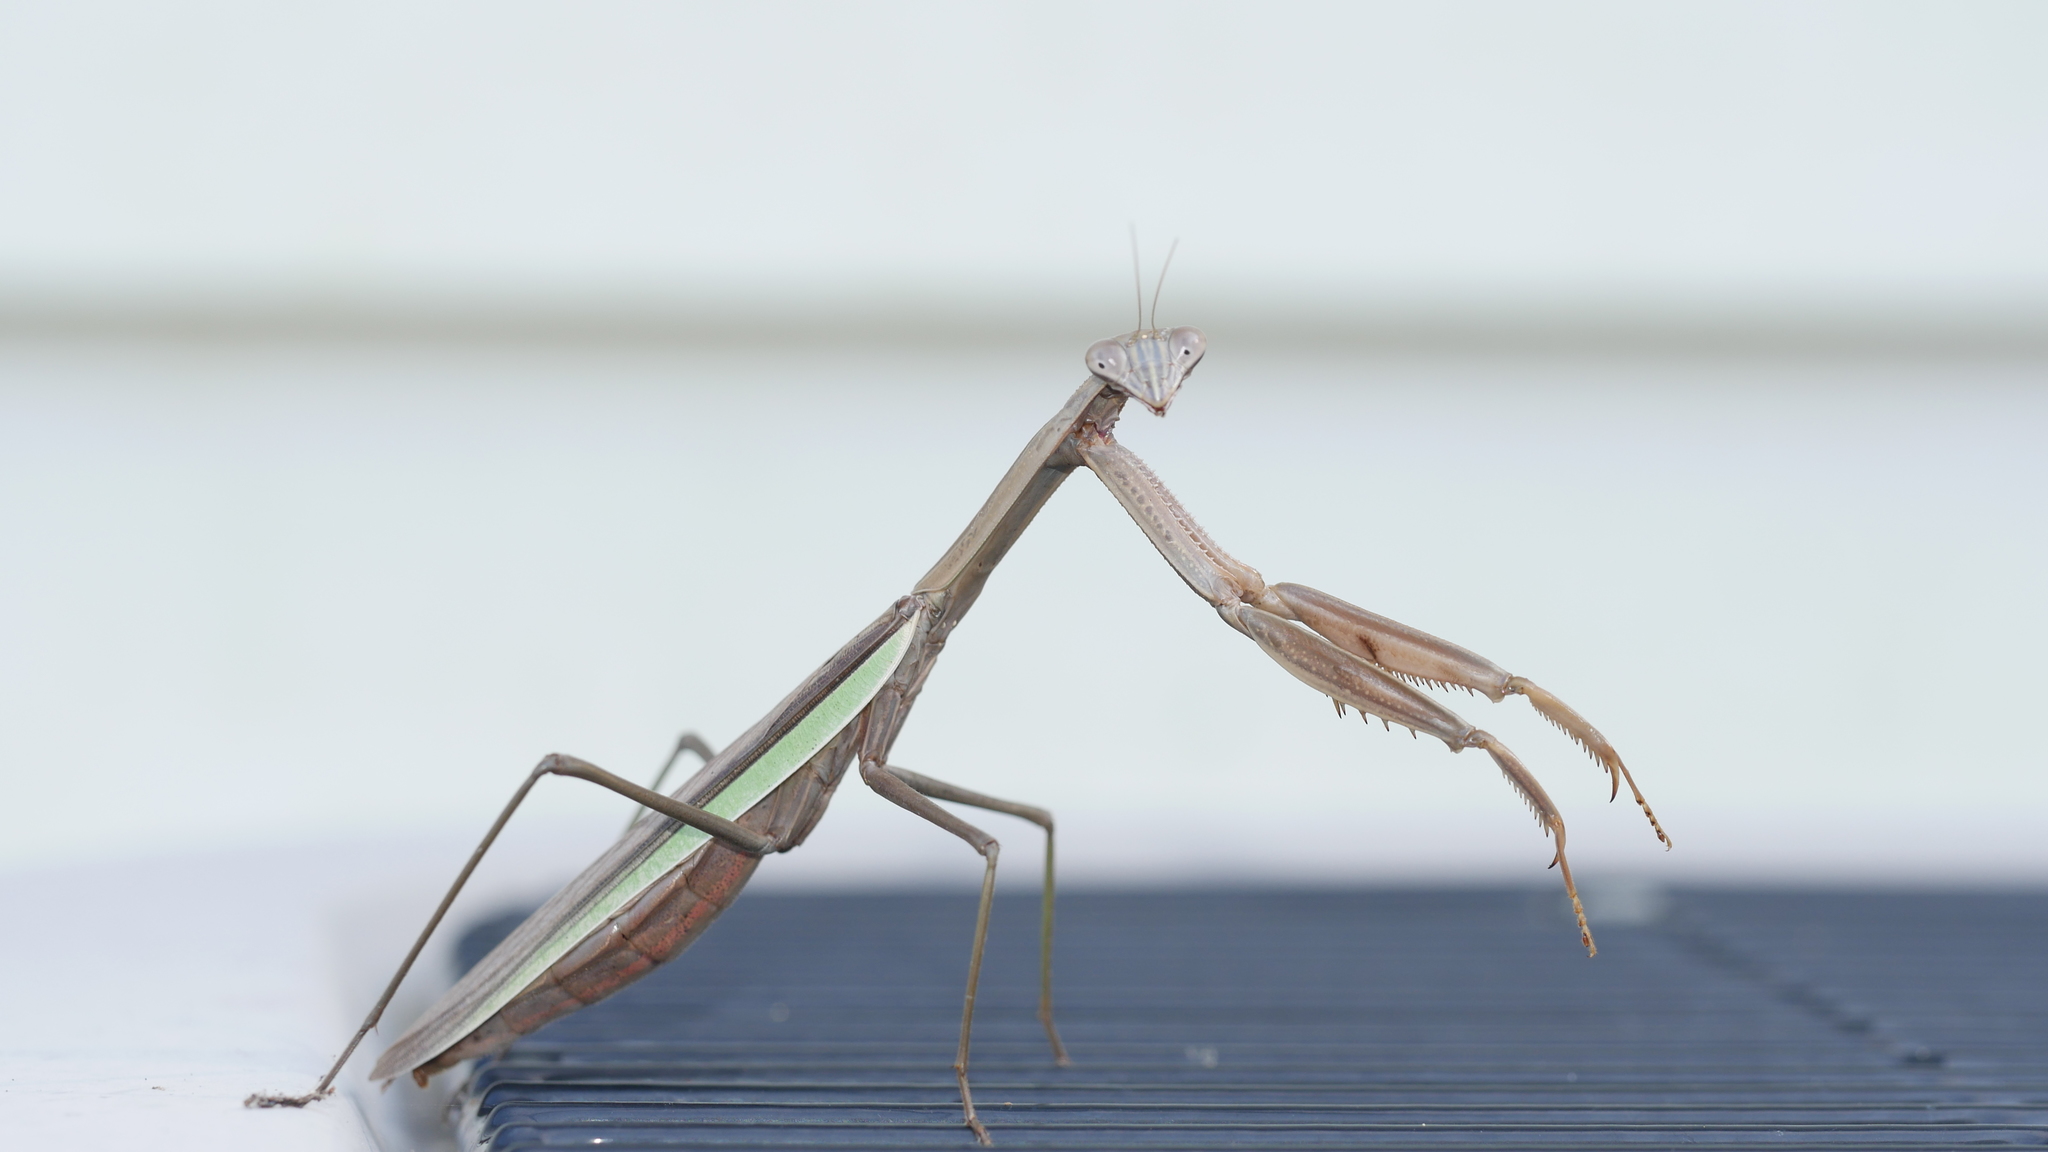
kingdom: Animalia
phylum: Arthropoda
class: Insecta
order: Mantodea
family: Mantidae
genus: Tenodera
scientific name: Tenodera sinensis
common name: Chinese mantis
